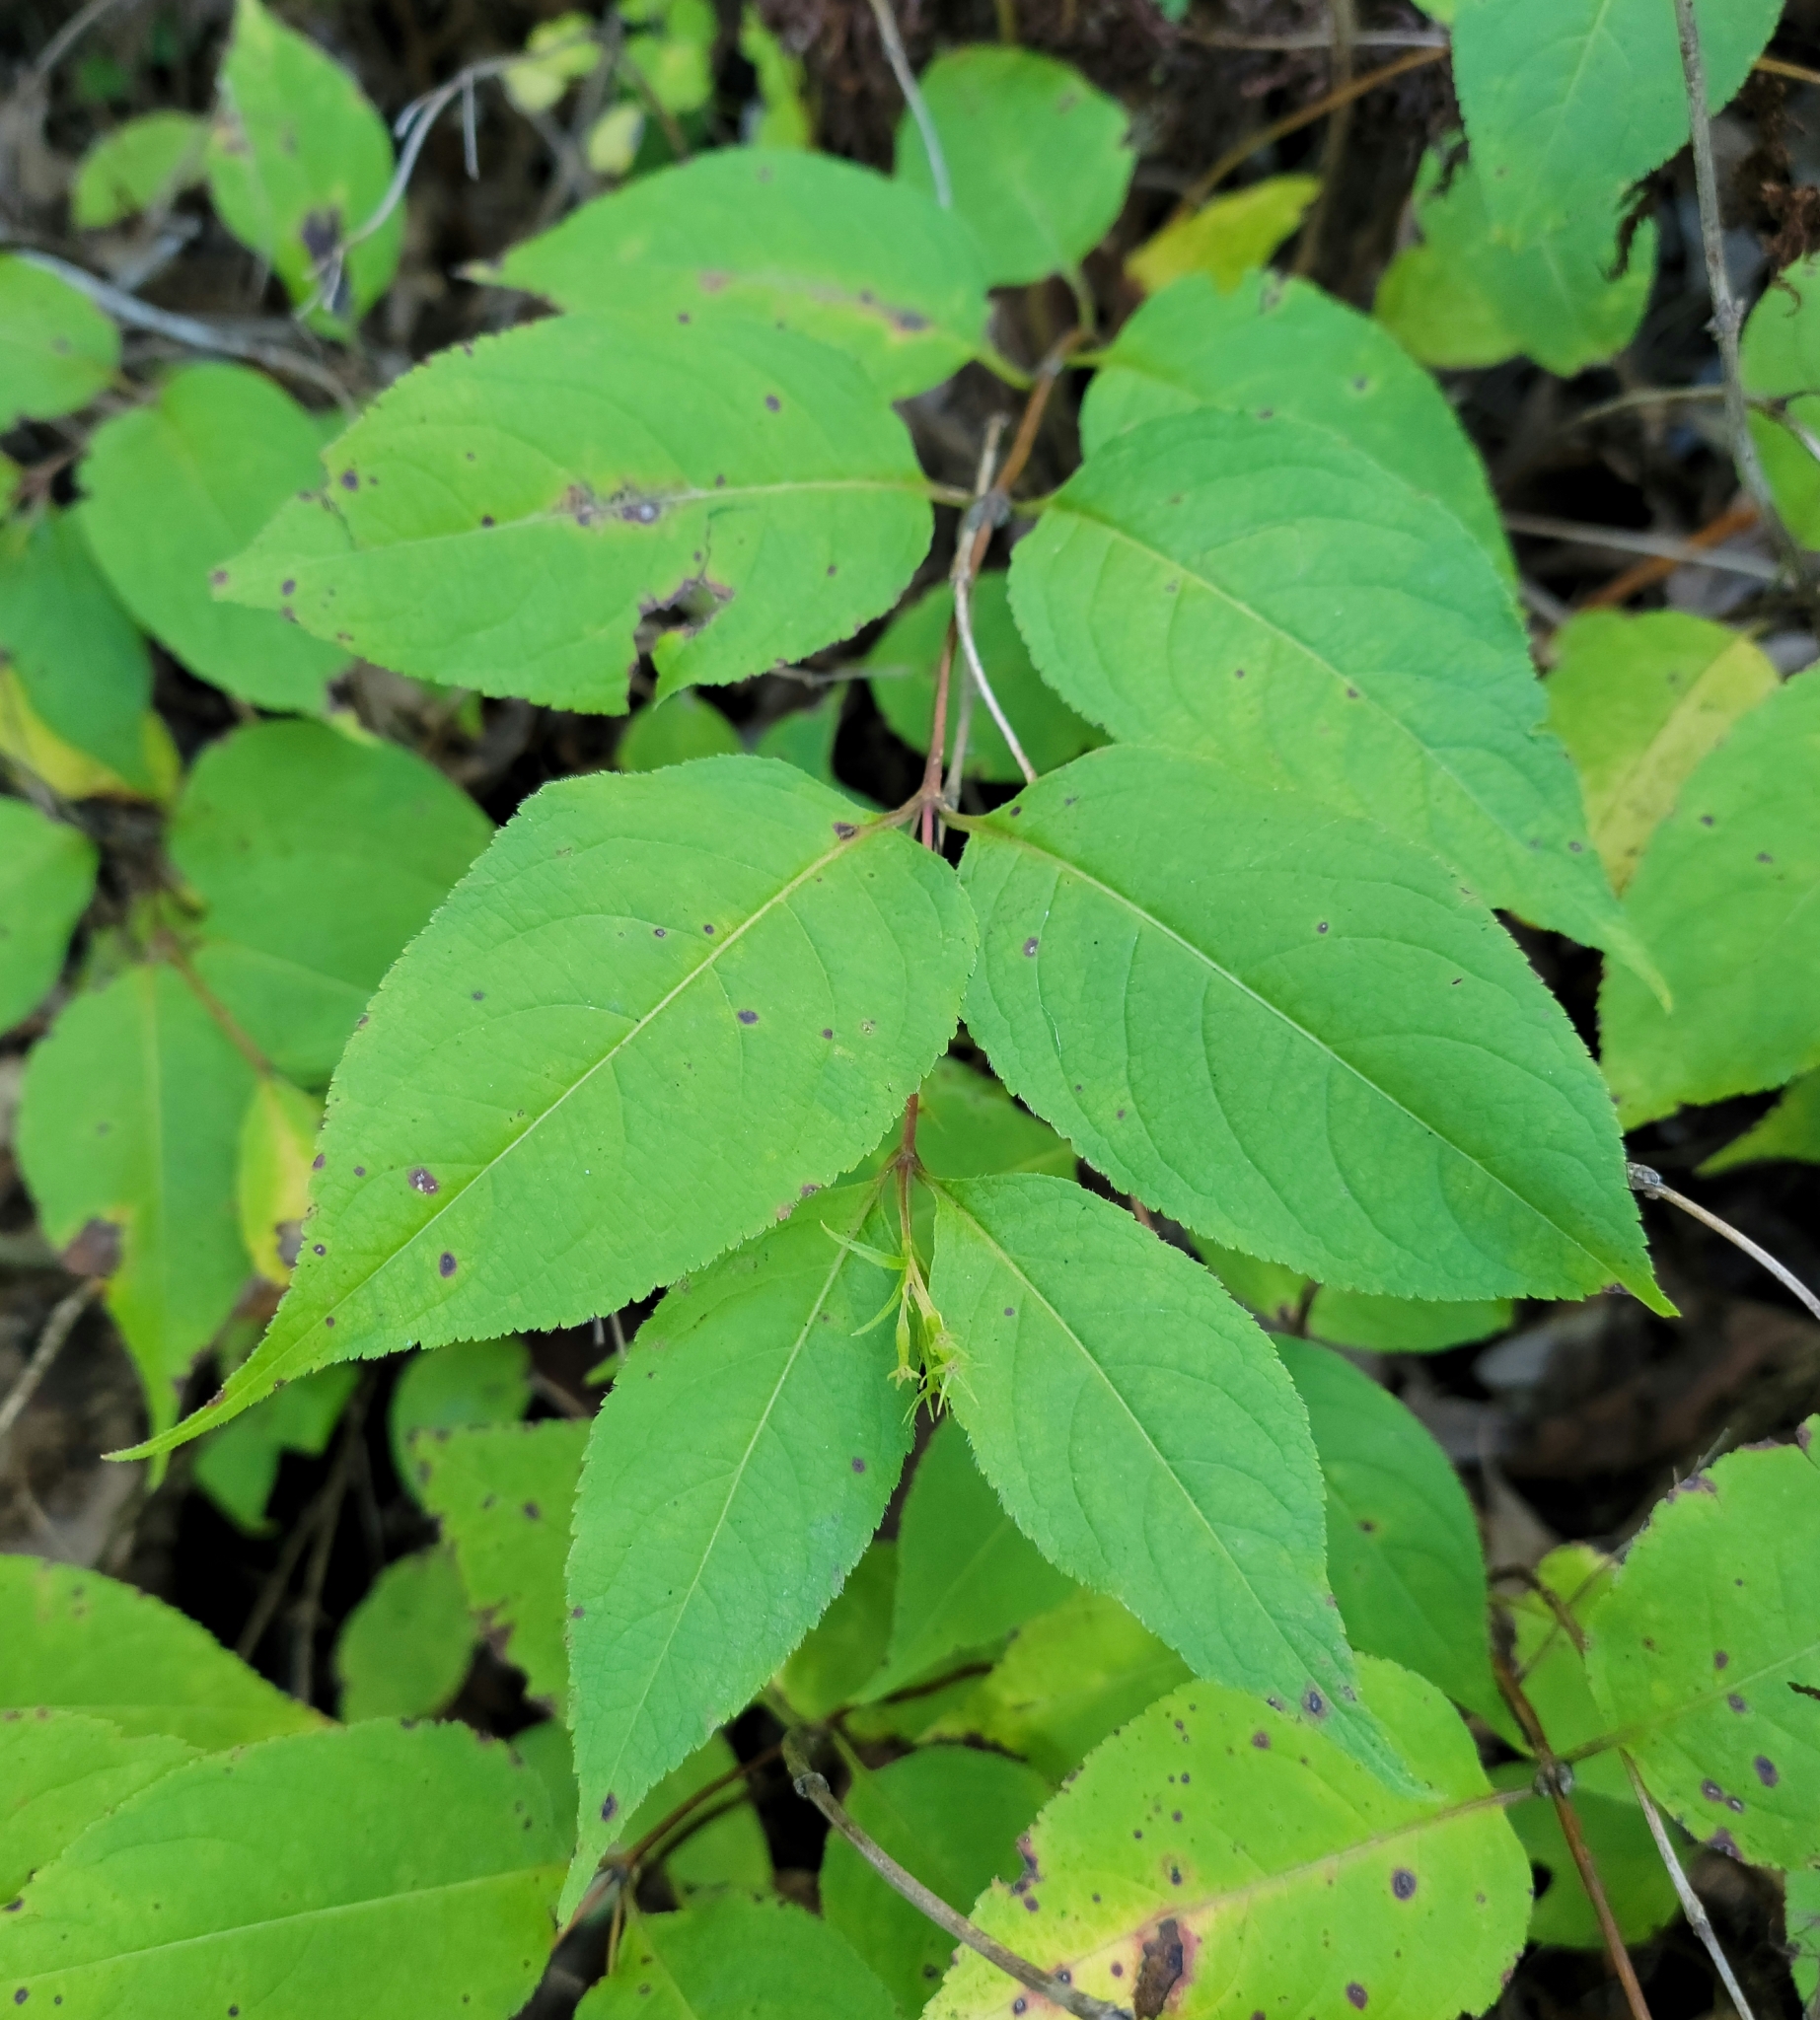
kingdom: Plantae
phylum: Tracheophyta
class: Magnoliopsida
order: Dipsacales
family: Caprifoliaceae
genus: Diervilla
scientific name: Diervilla lonicera
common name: Bush-honeysuckle
